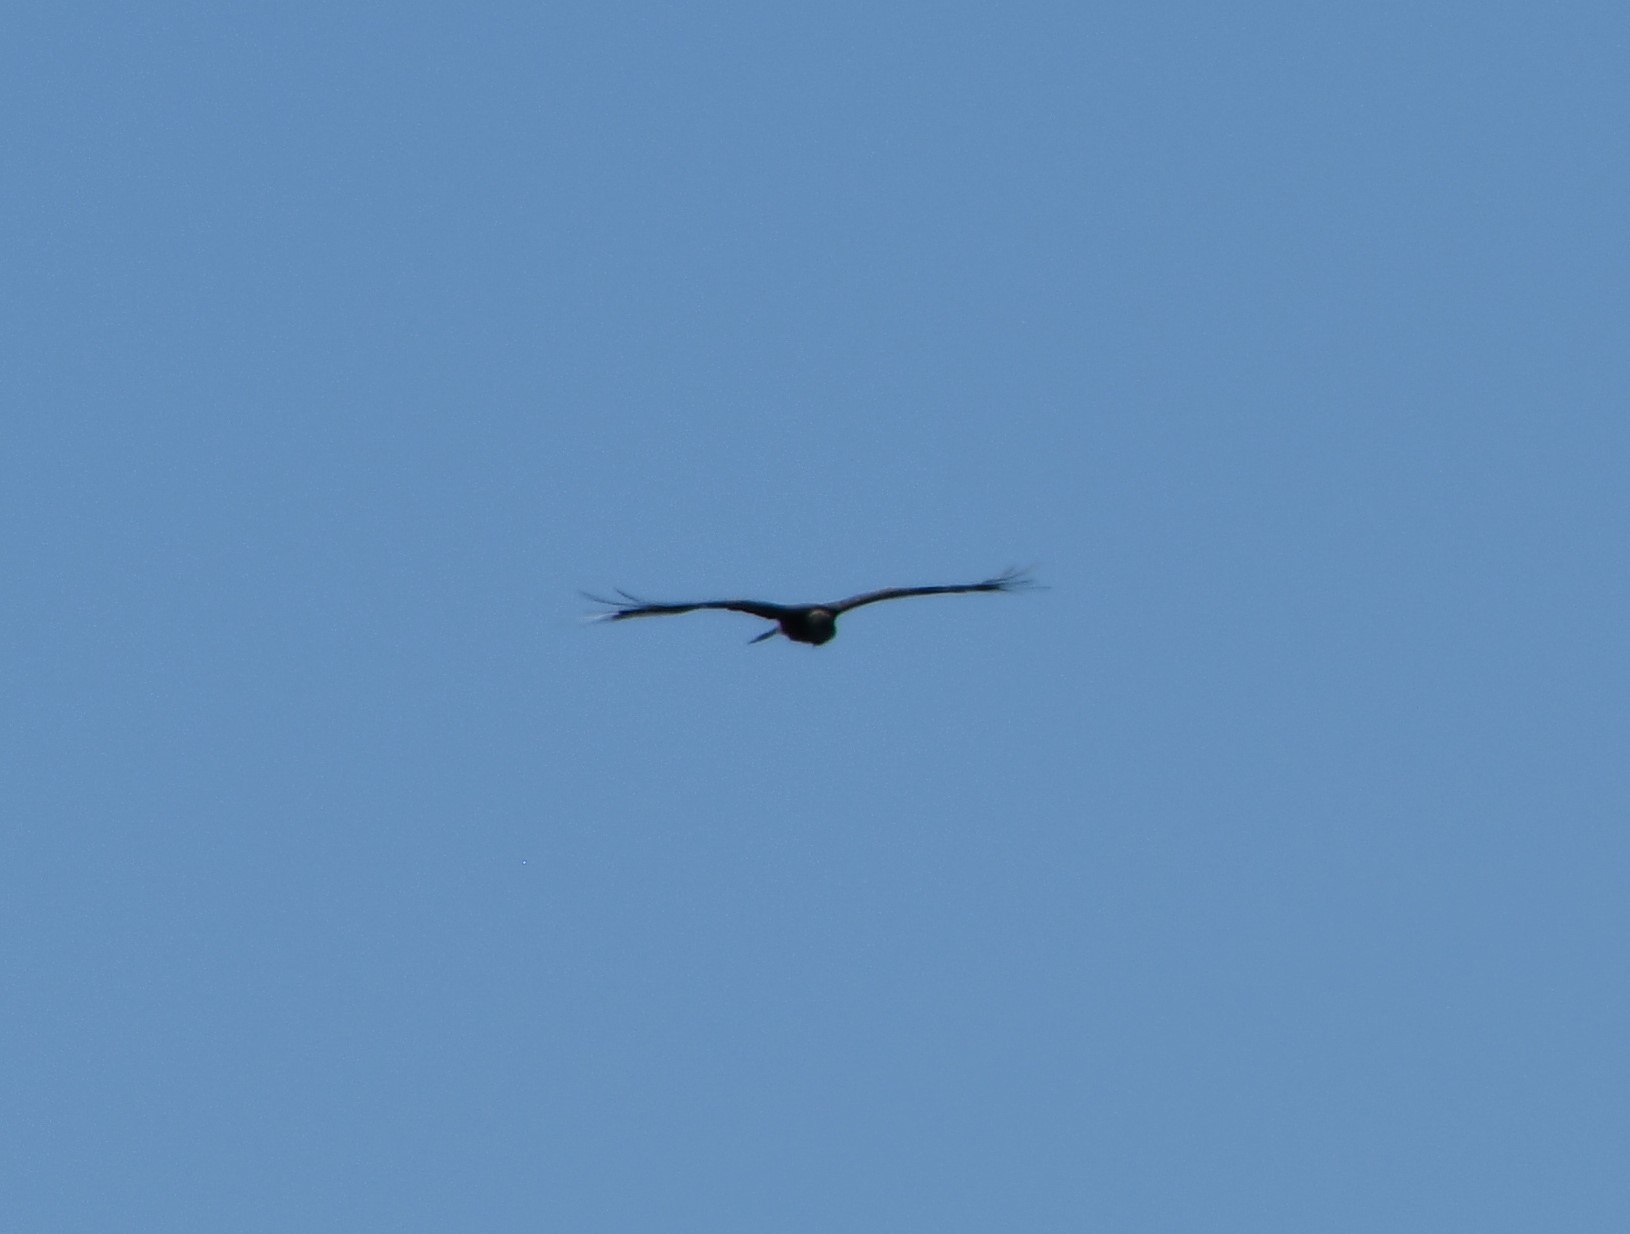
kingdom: Animalia
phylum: Chordata
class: Aves
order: Accipitriformes
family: Accipitridae
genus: Lophoictinia
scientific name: Lophoictinia isura
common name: Square-tailed kite
